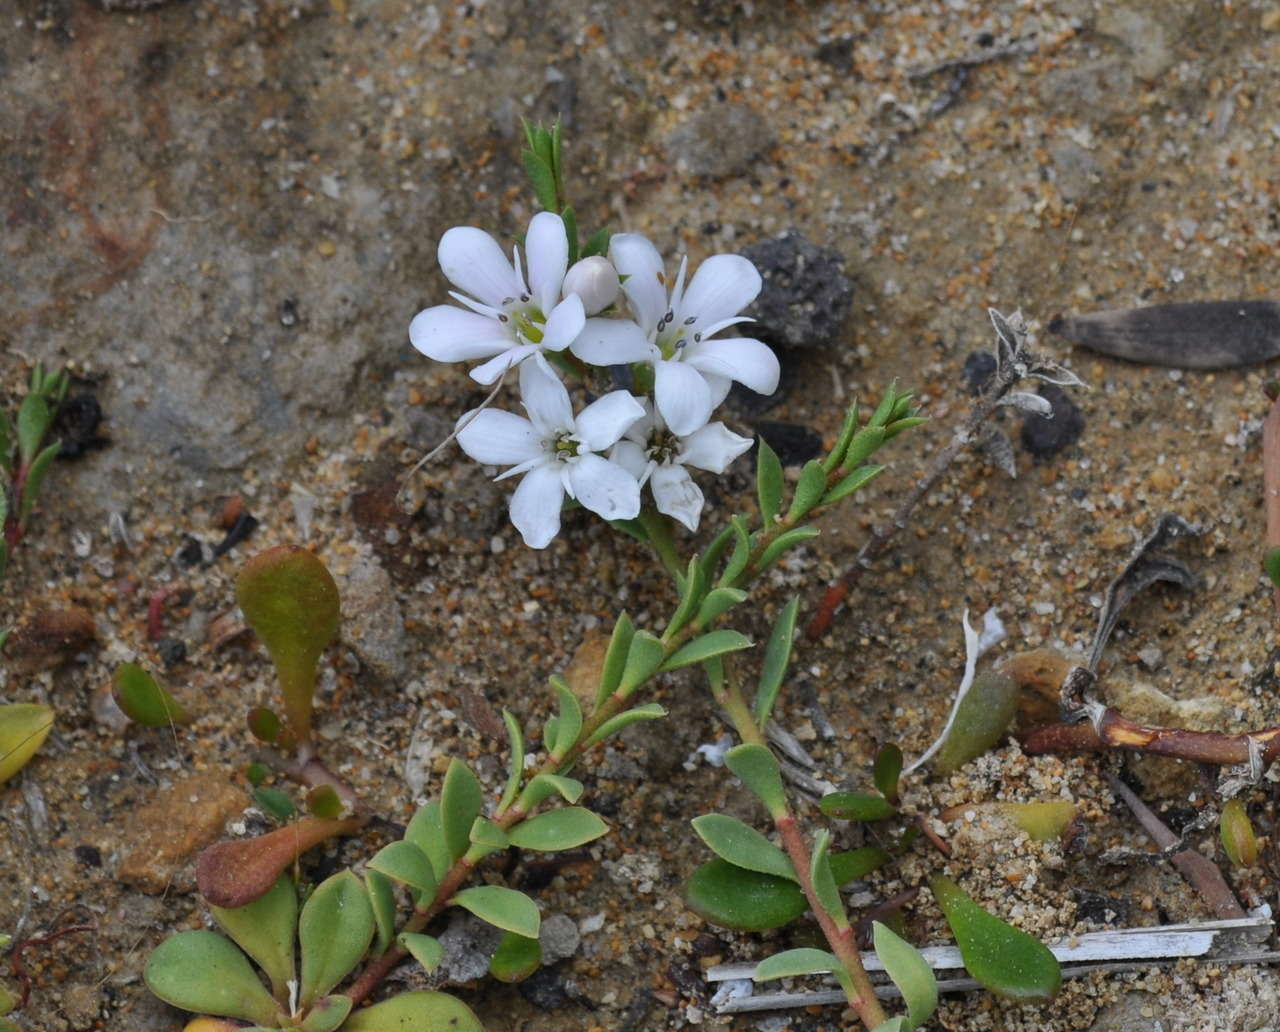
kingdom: Plantae
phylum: Tracheophyta
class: Magnoliopsida
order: Ericales
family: Primulaceae
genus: Samolus
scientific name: Samolus repens
